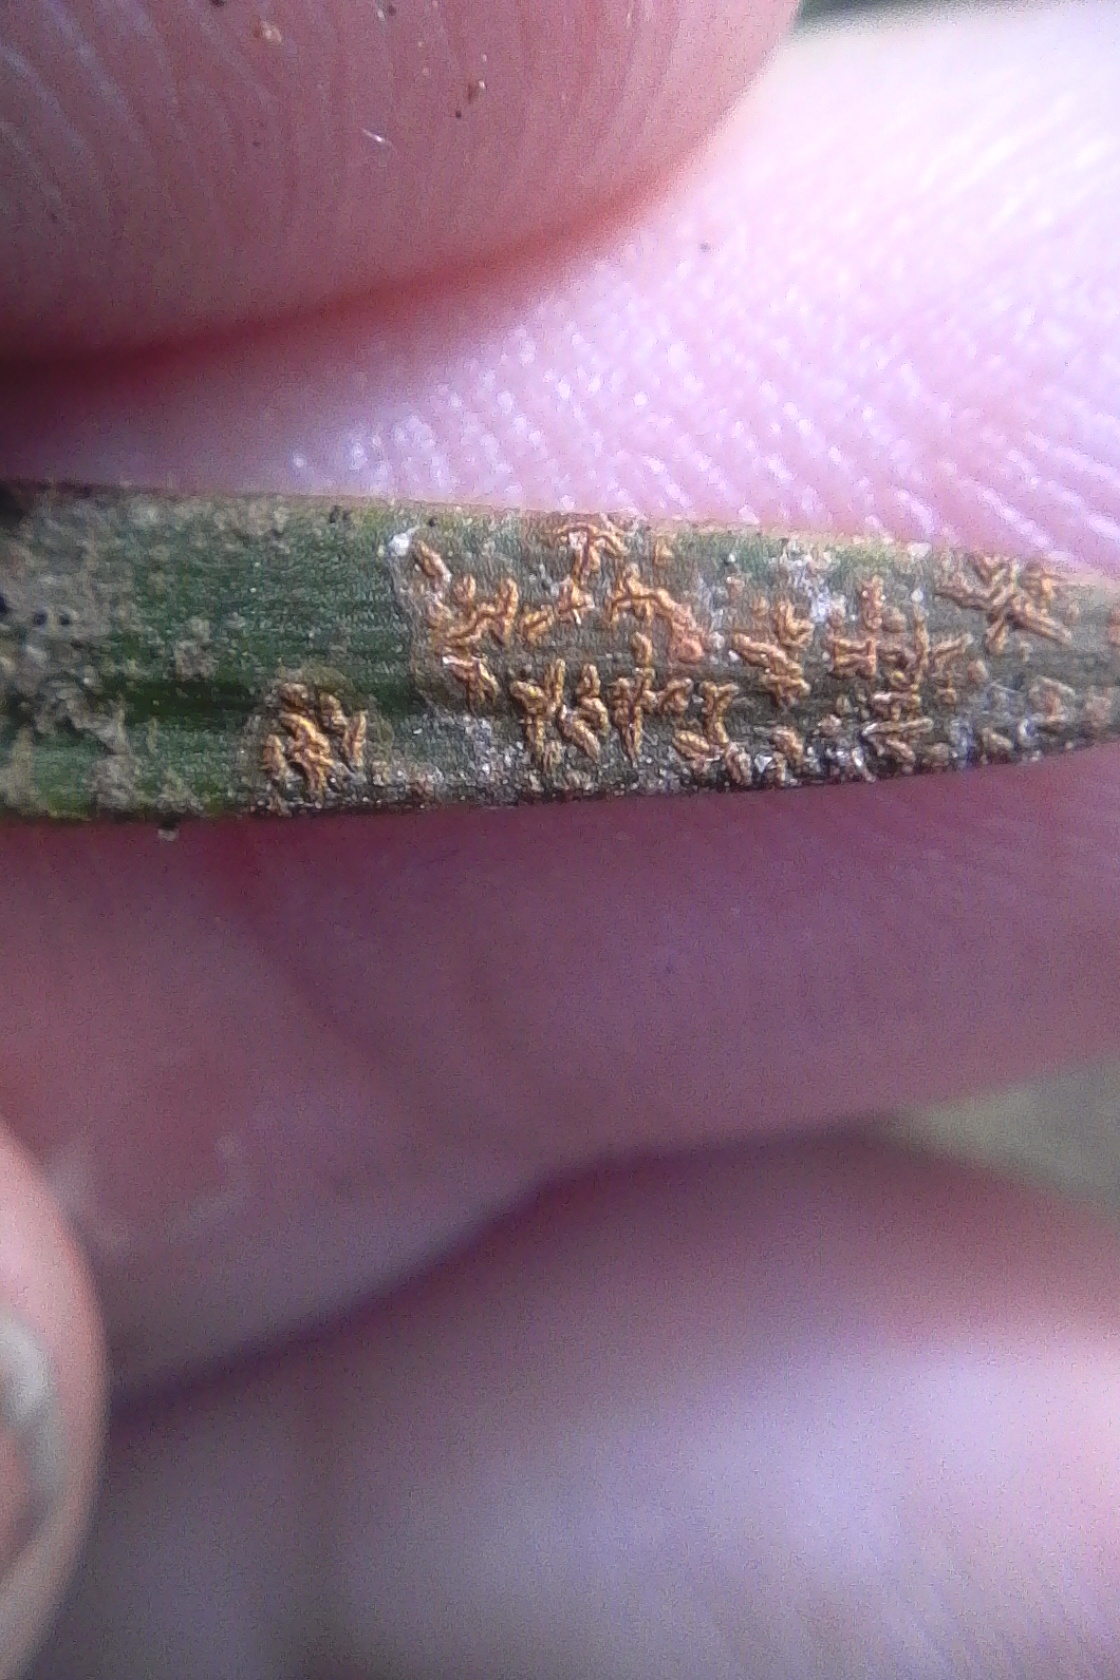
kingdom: Fungi
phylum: Ascomycota
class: Arthoniomycetes
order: Arthoniales
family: Roccellaceae
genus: Enterographa
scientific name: Enterographa bella
